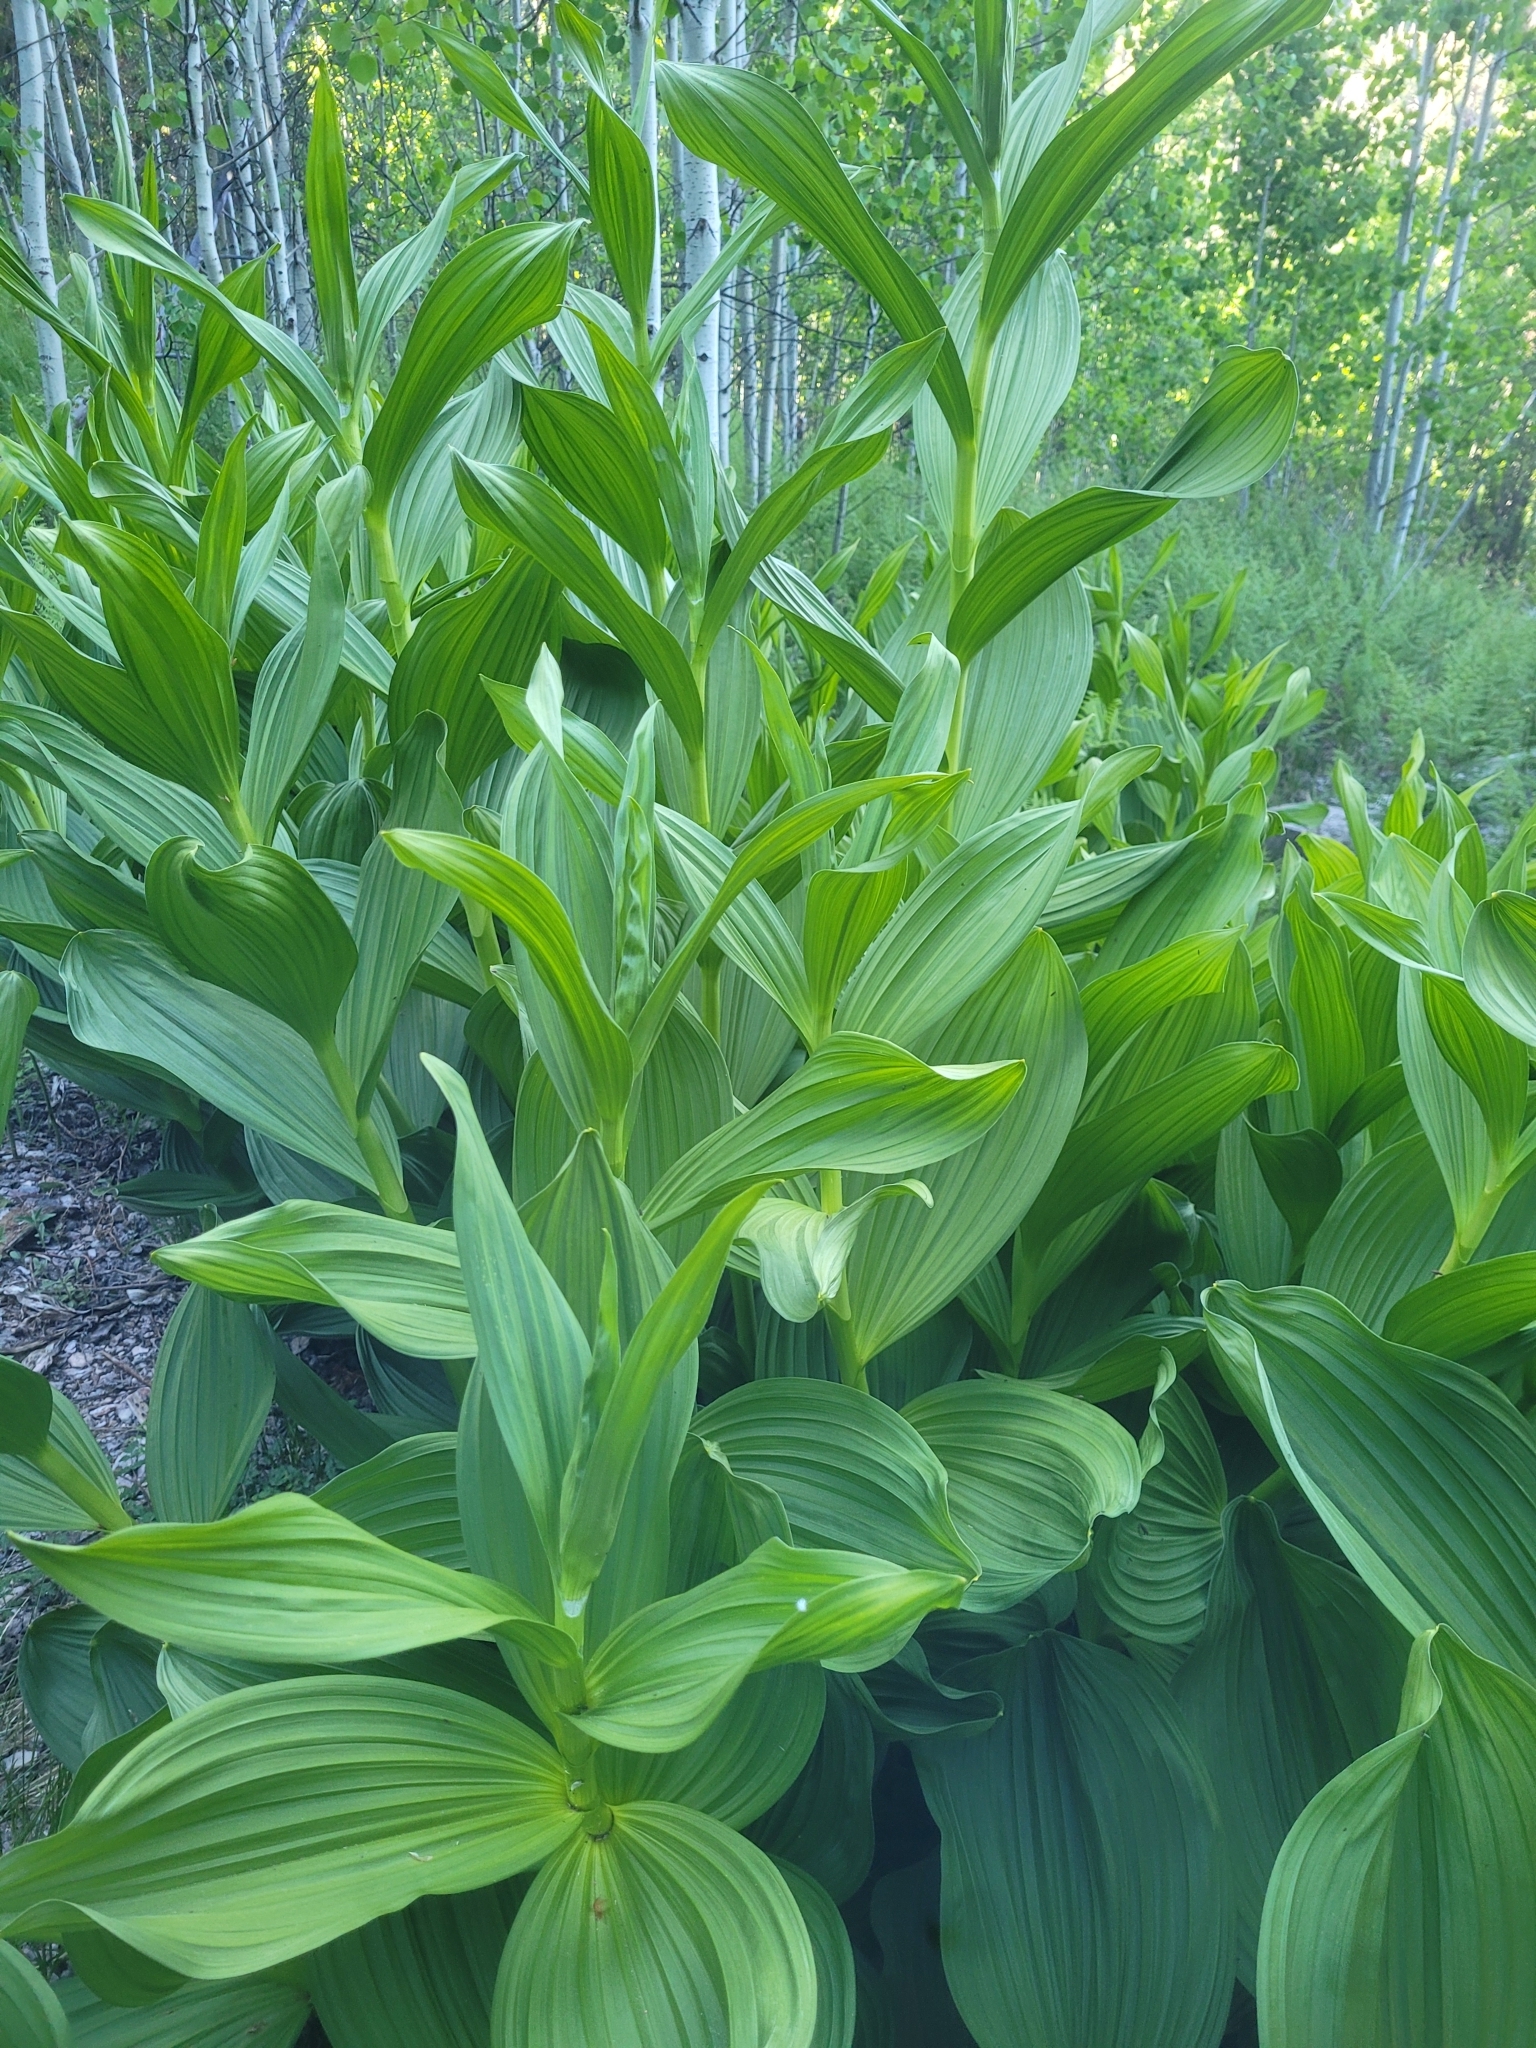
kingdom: Plantae
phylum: Tracheophyta
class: Liliopsida
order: Liliales
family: Melanthiaceae
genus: Veratrum
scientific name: Veratrum californicum
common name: California veratrum
